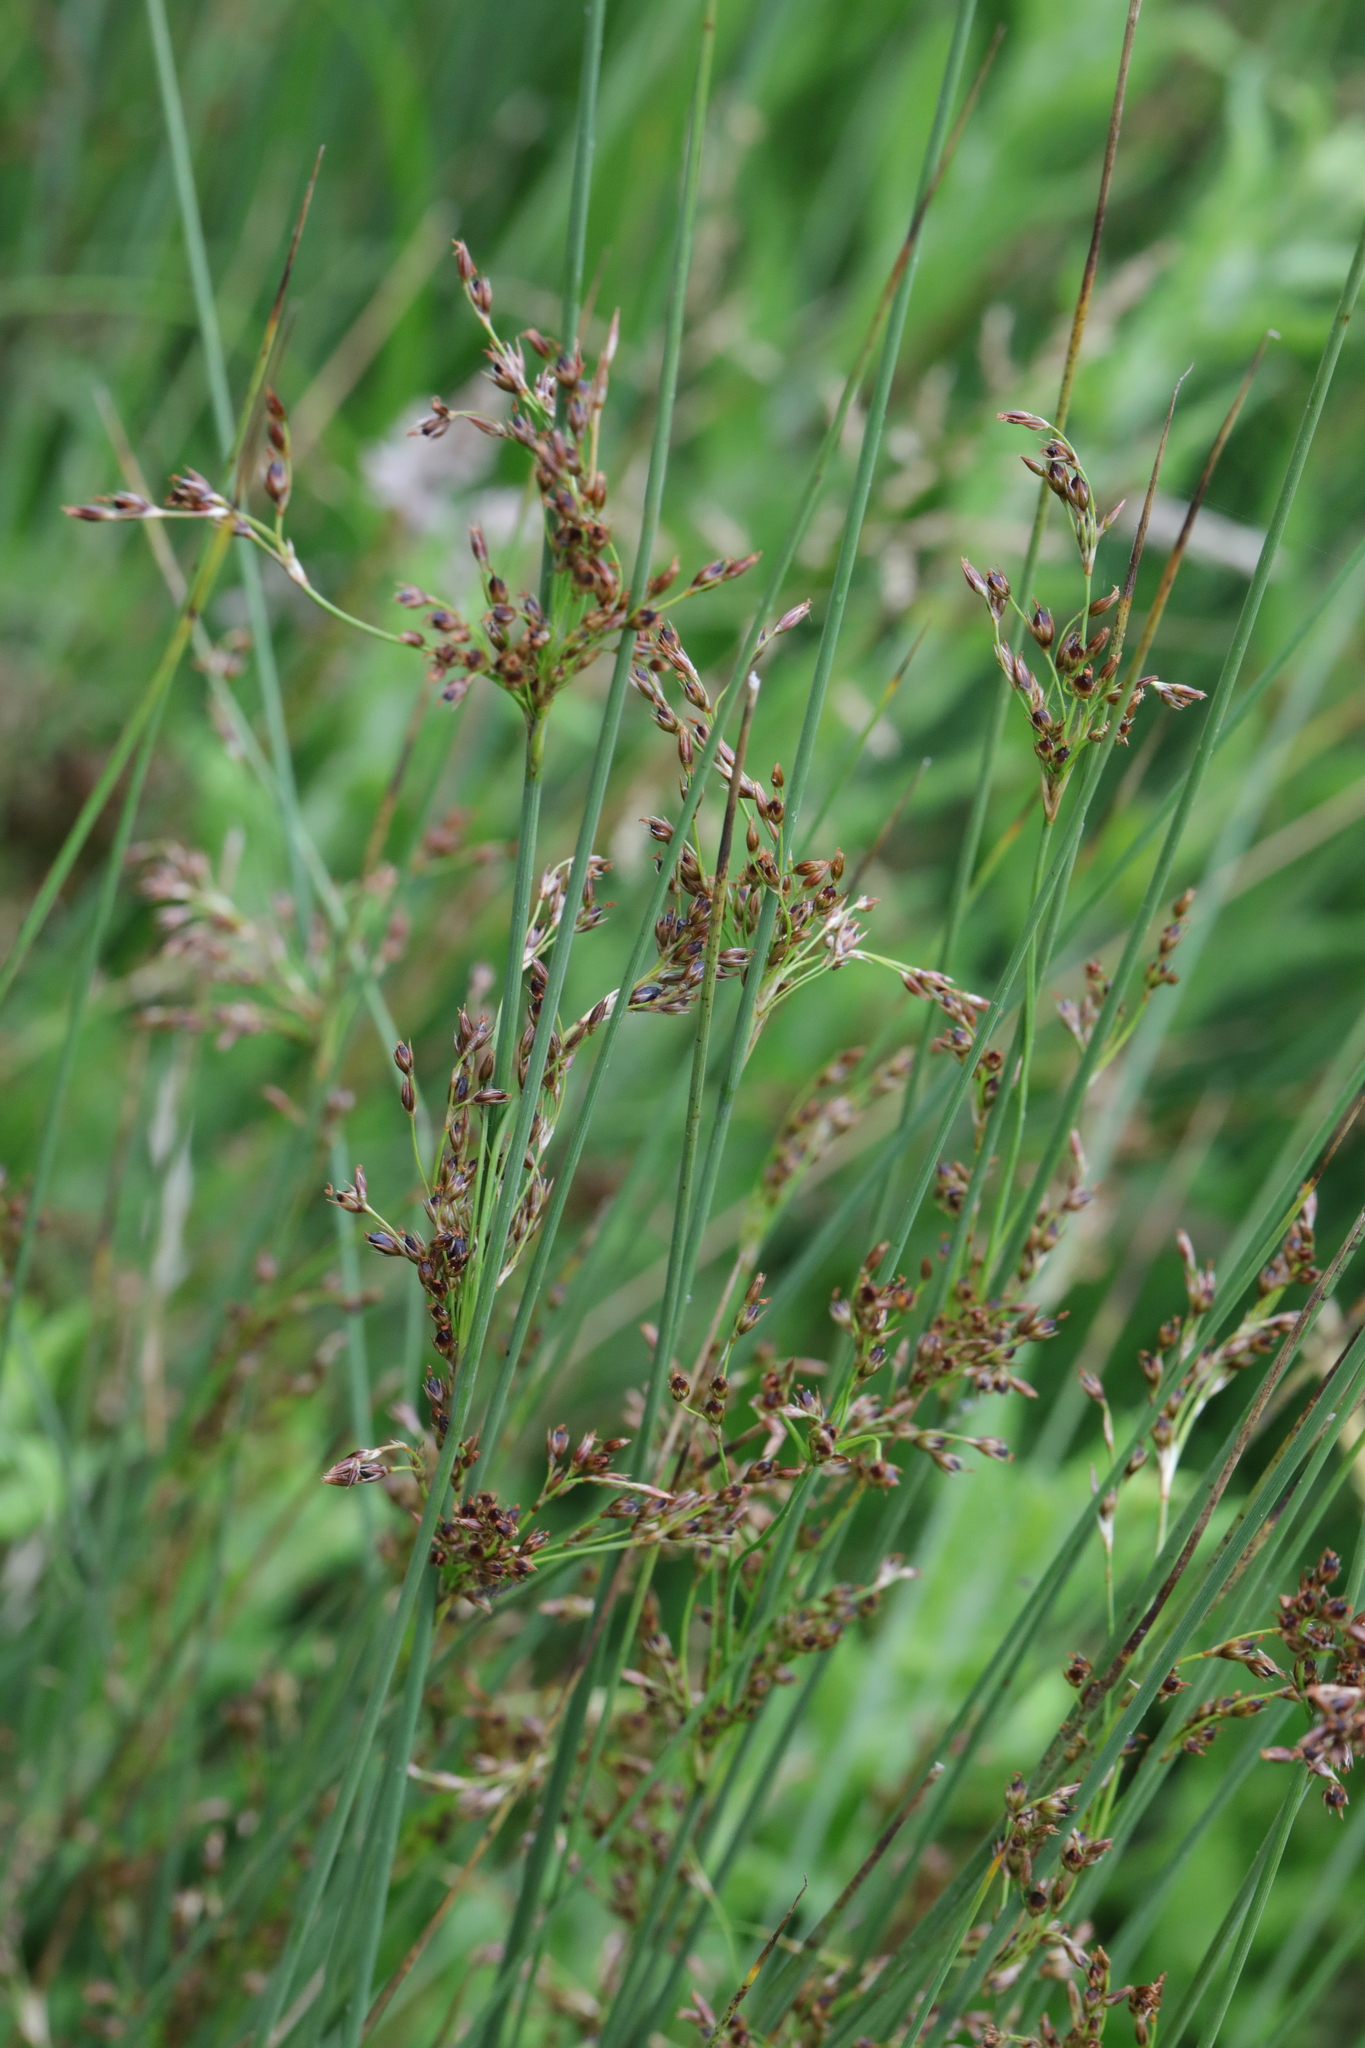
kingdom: Plantae
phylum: Tracheophyta
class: Liliopsida
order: Poales
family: Juncaceae
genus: Juncus
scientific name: Juncus inflexus
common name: Hard rush
